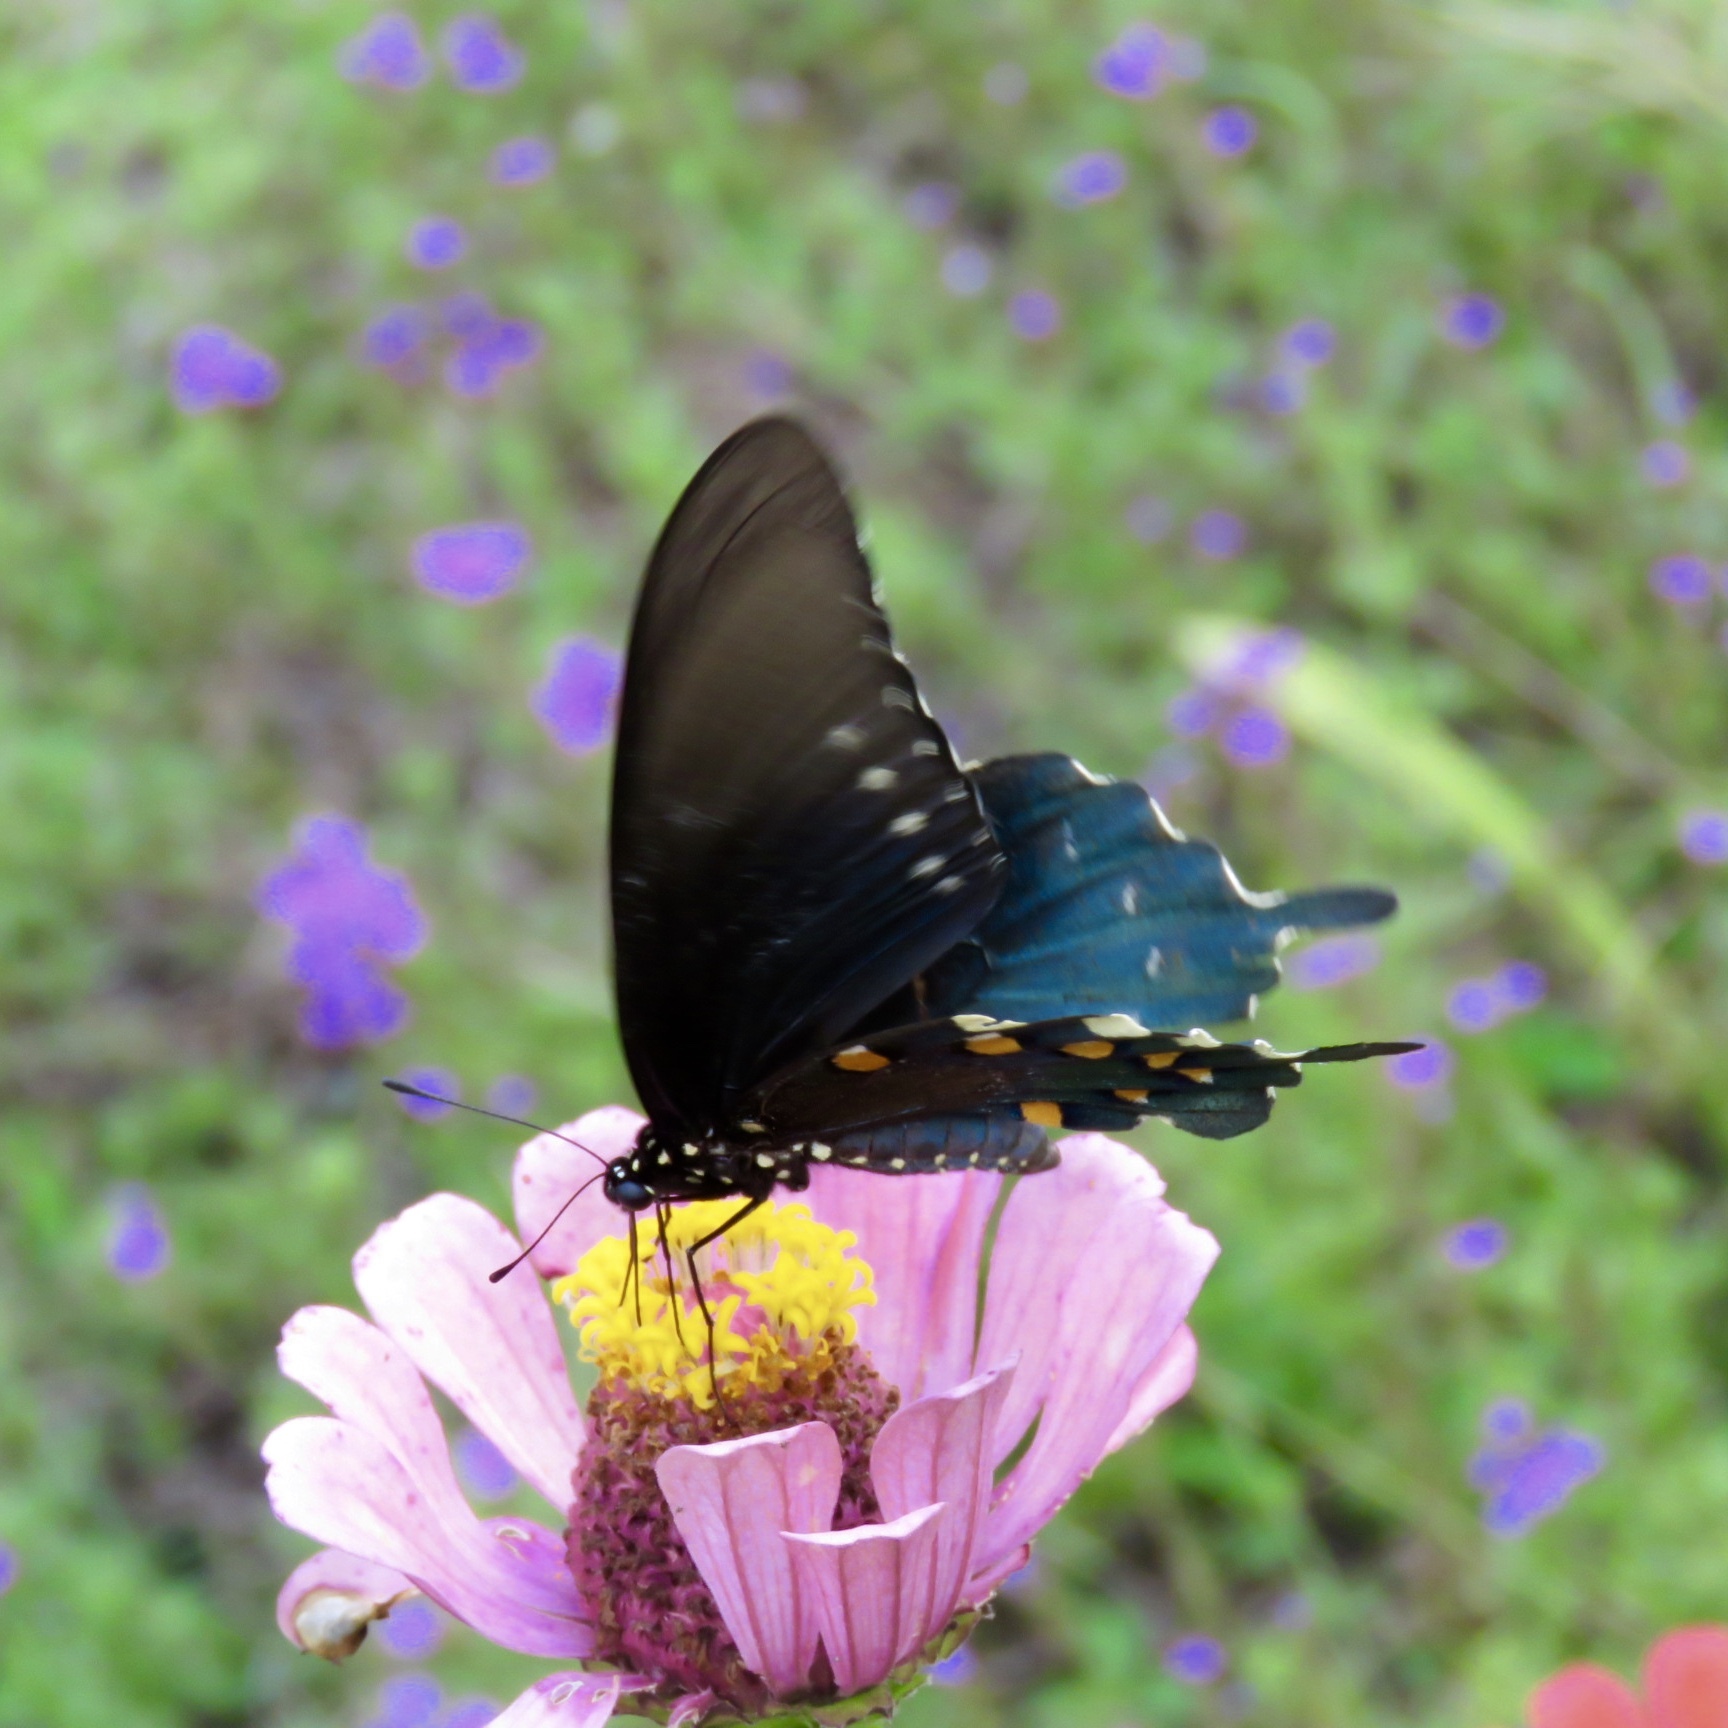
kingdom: Animalia
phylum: Arthropoda
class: Insecta
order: Lepidoptera
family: Papilionidae
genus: Battus
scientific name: Battus philenor
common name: Pipevine swallowtail
